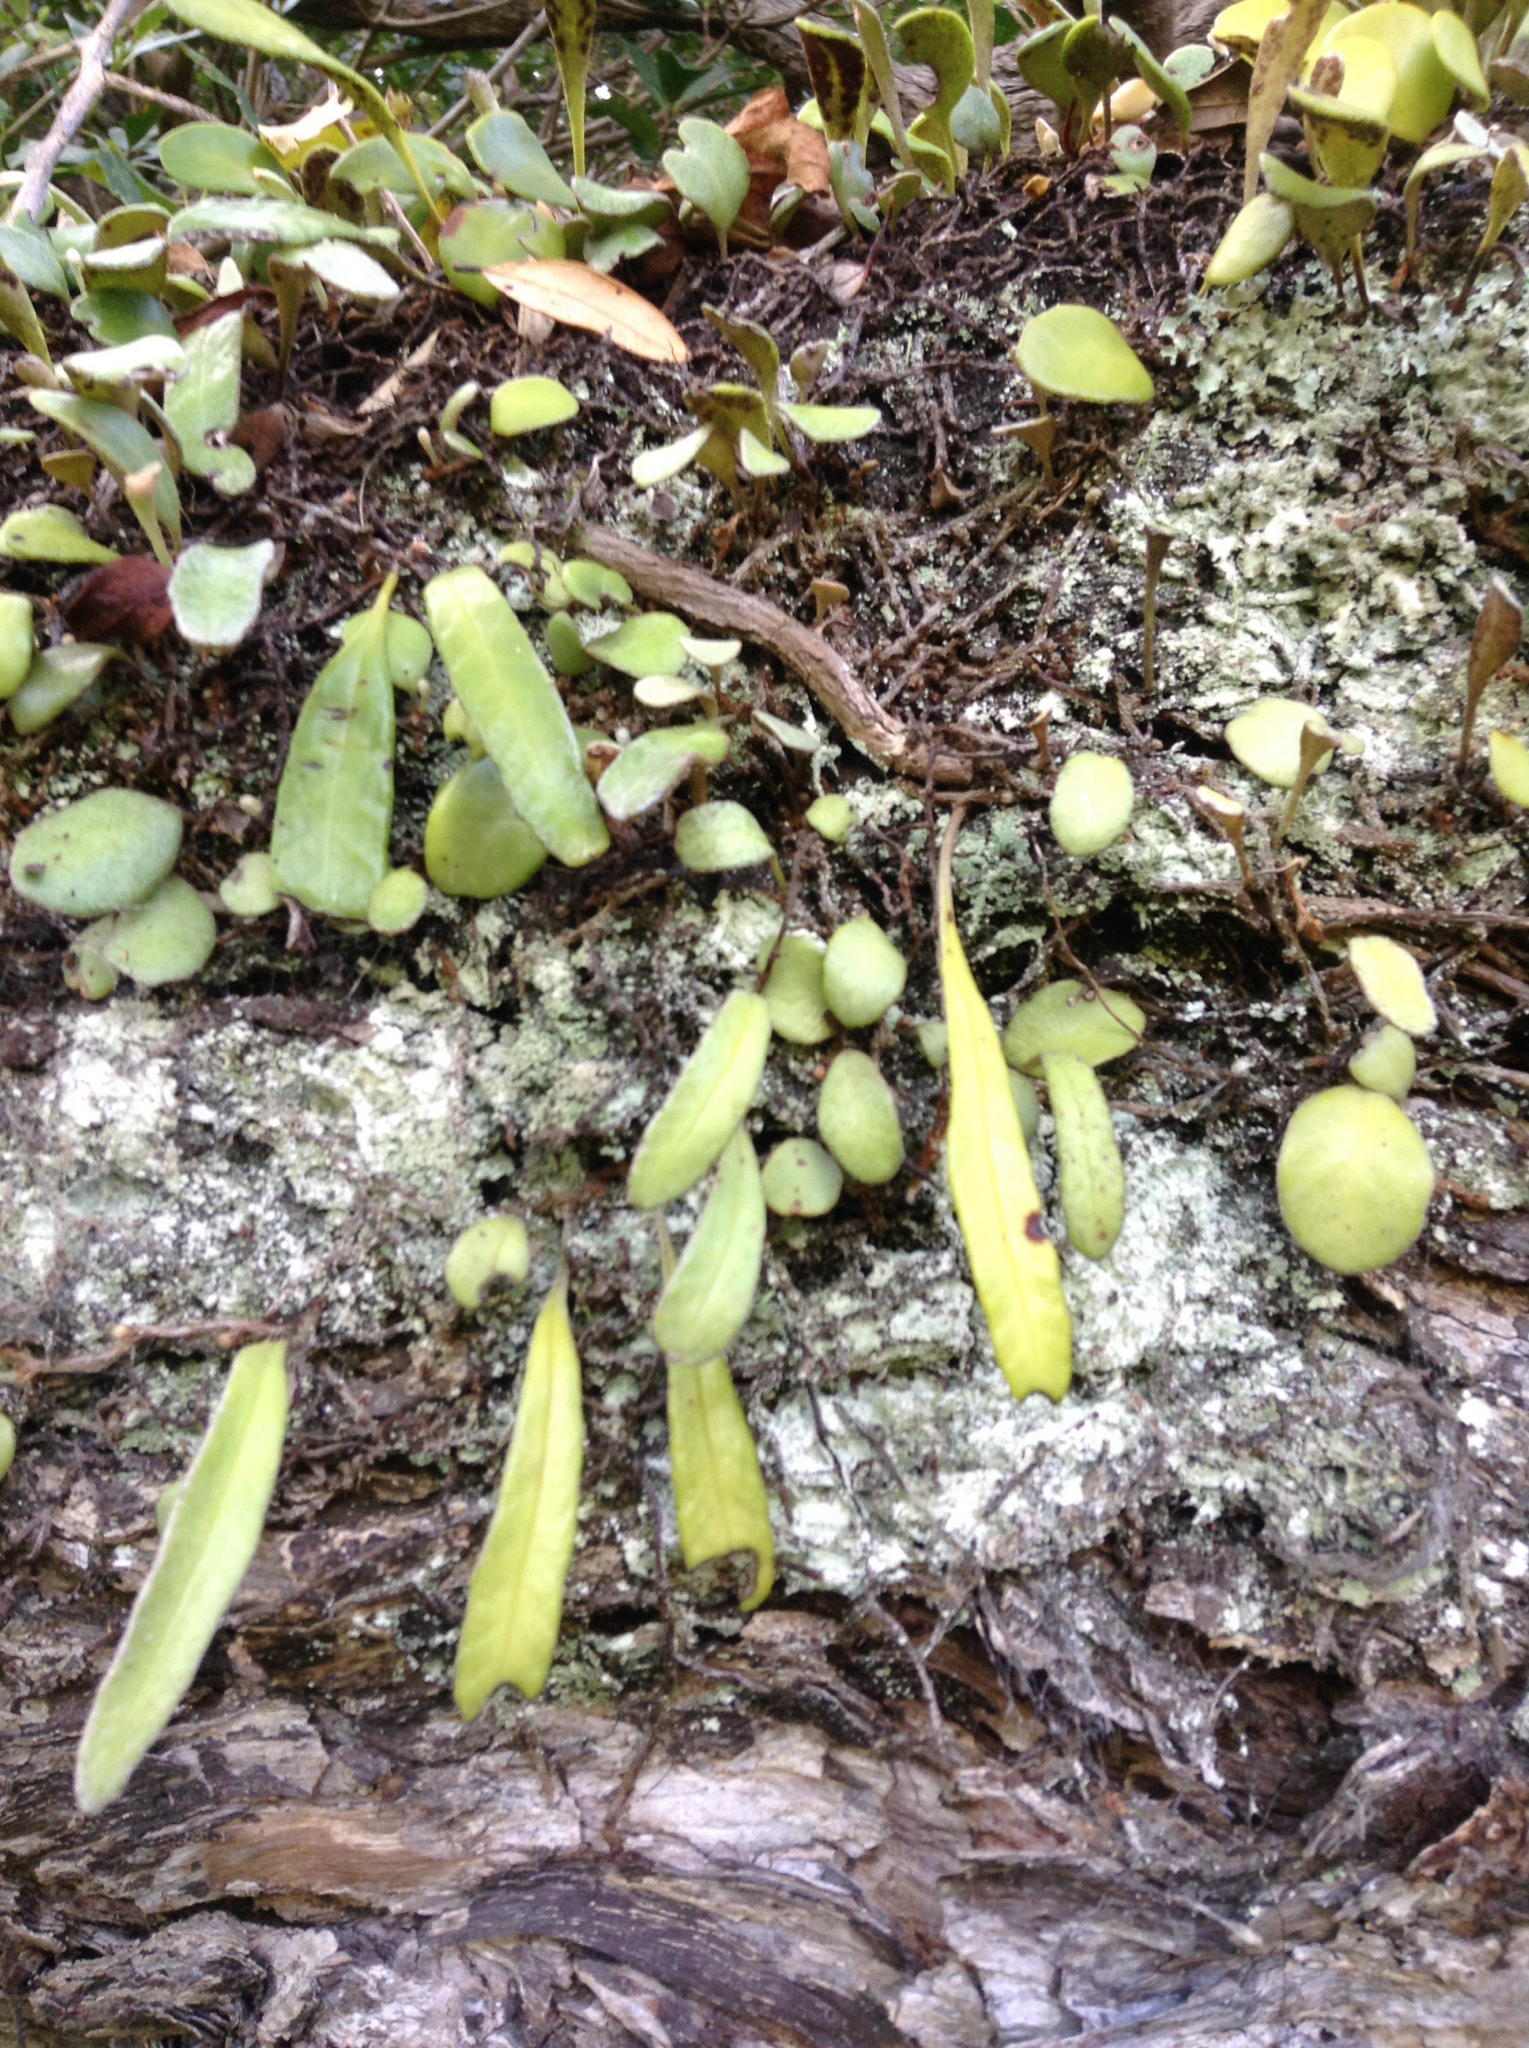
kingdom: Plantae
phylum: Tracheophyta
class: Polypodiopsida
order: Polypodiales
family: Polypodiaceae
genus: Pyrrosia
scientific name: Pyrrosia eleagnifolia
